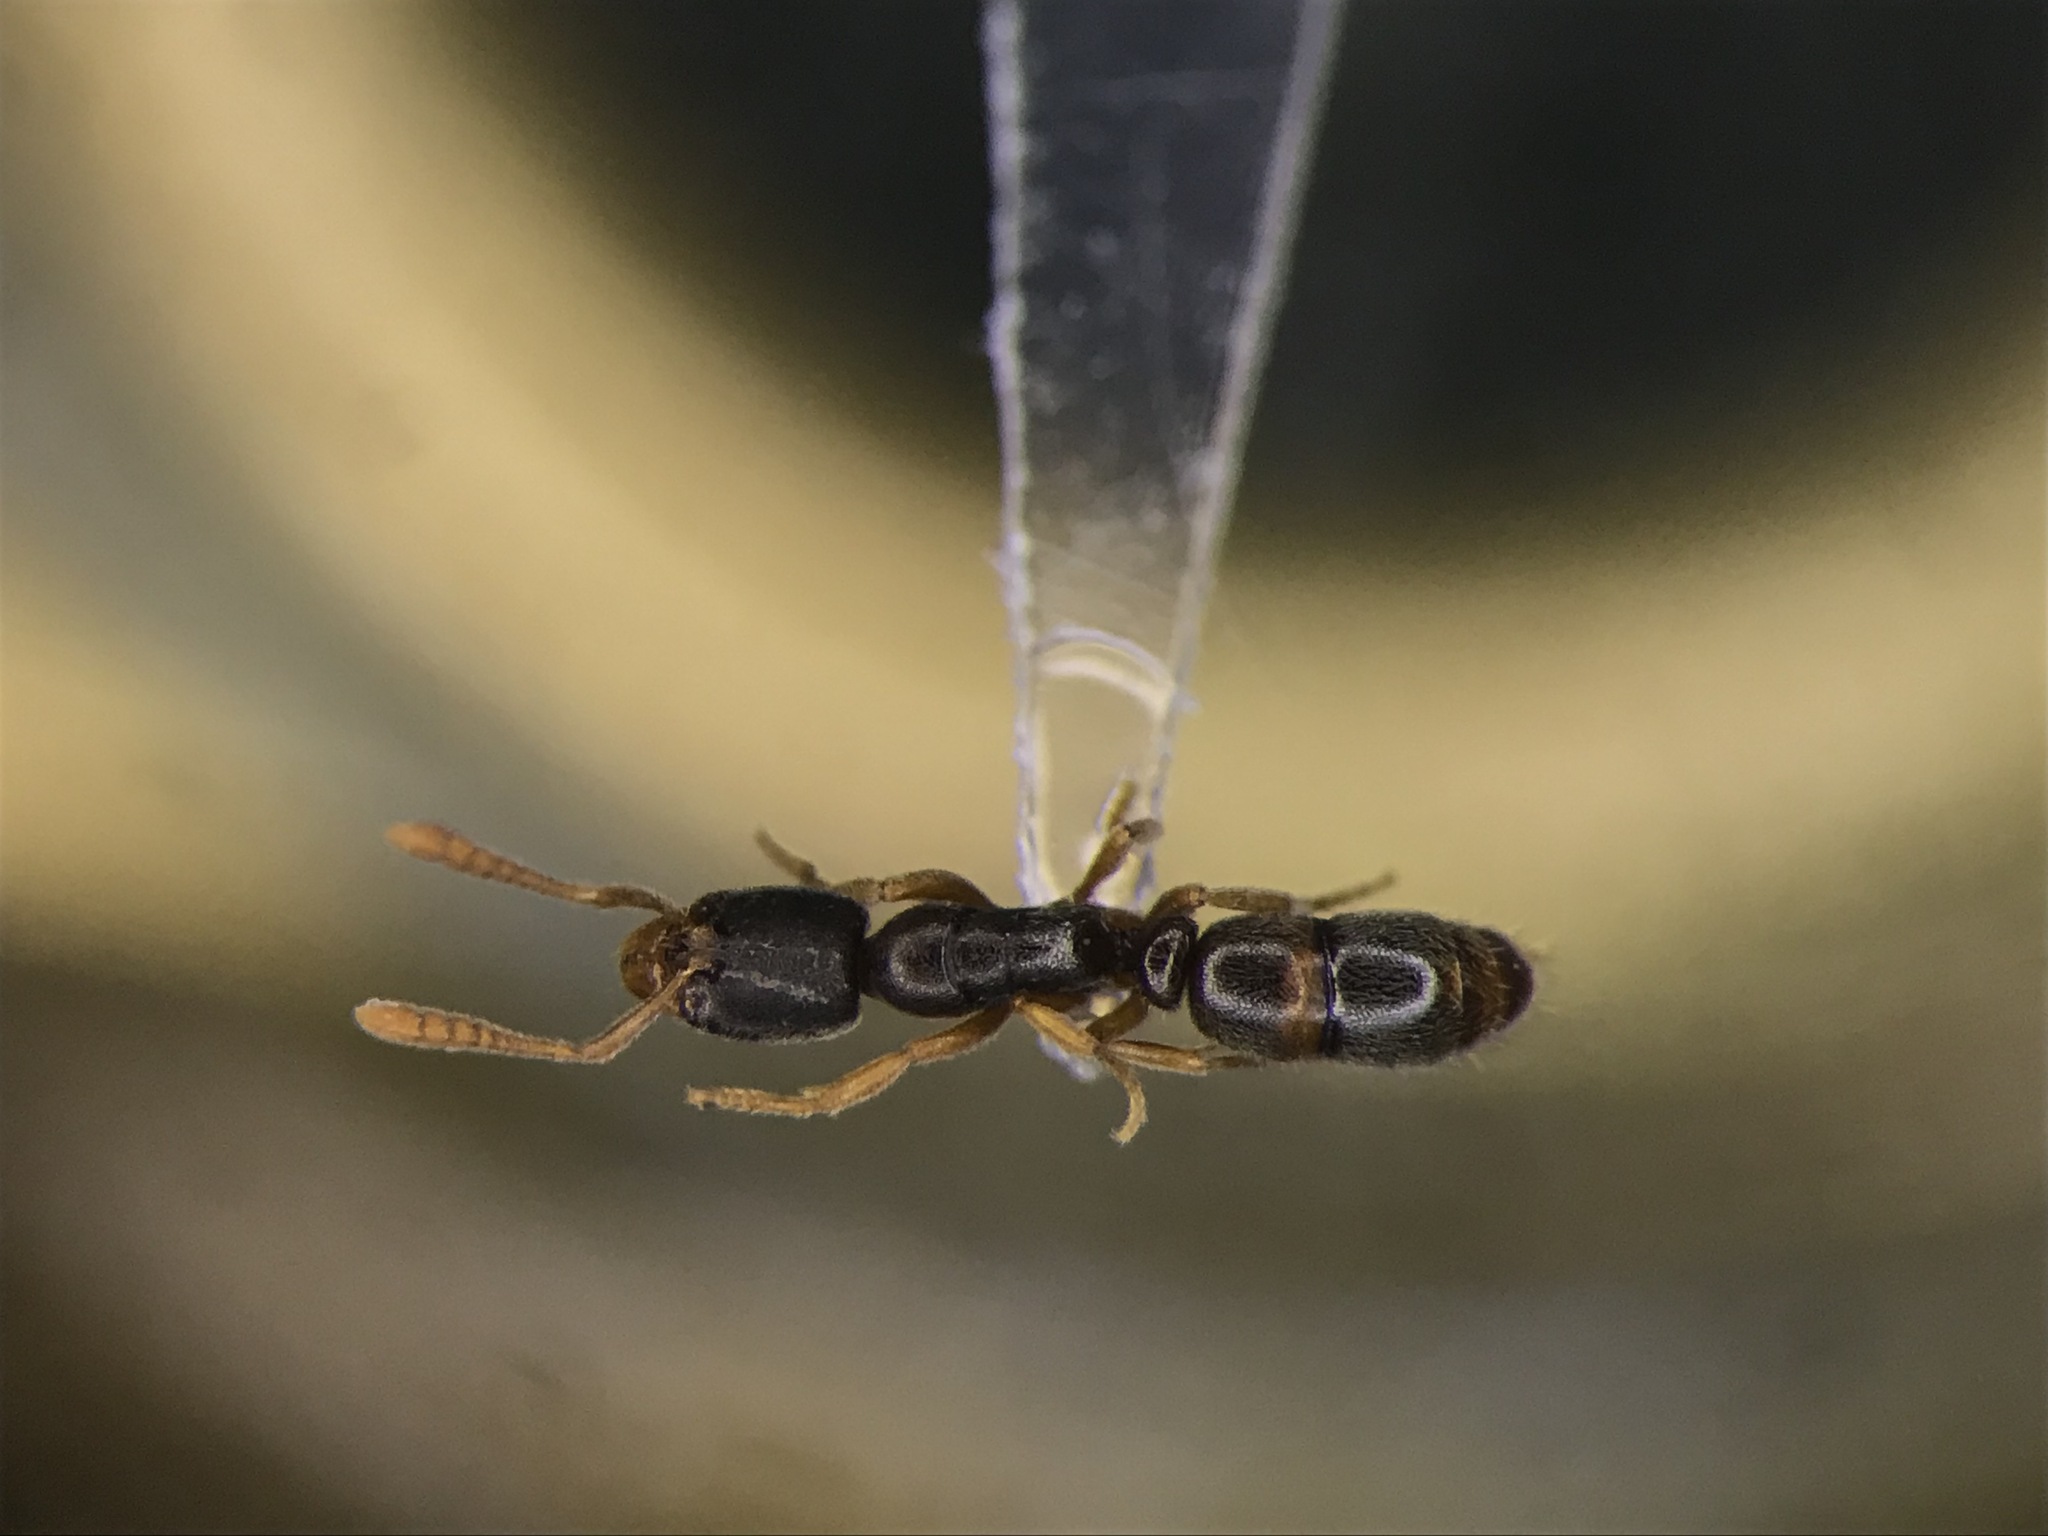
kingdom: Animalia
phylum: Arthropoda
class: Insecta
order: Hymenoptera
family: Formicidae
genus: Ponera
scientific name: Ponera pennsylvanica
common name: Pennsylvania ponera
